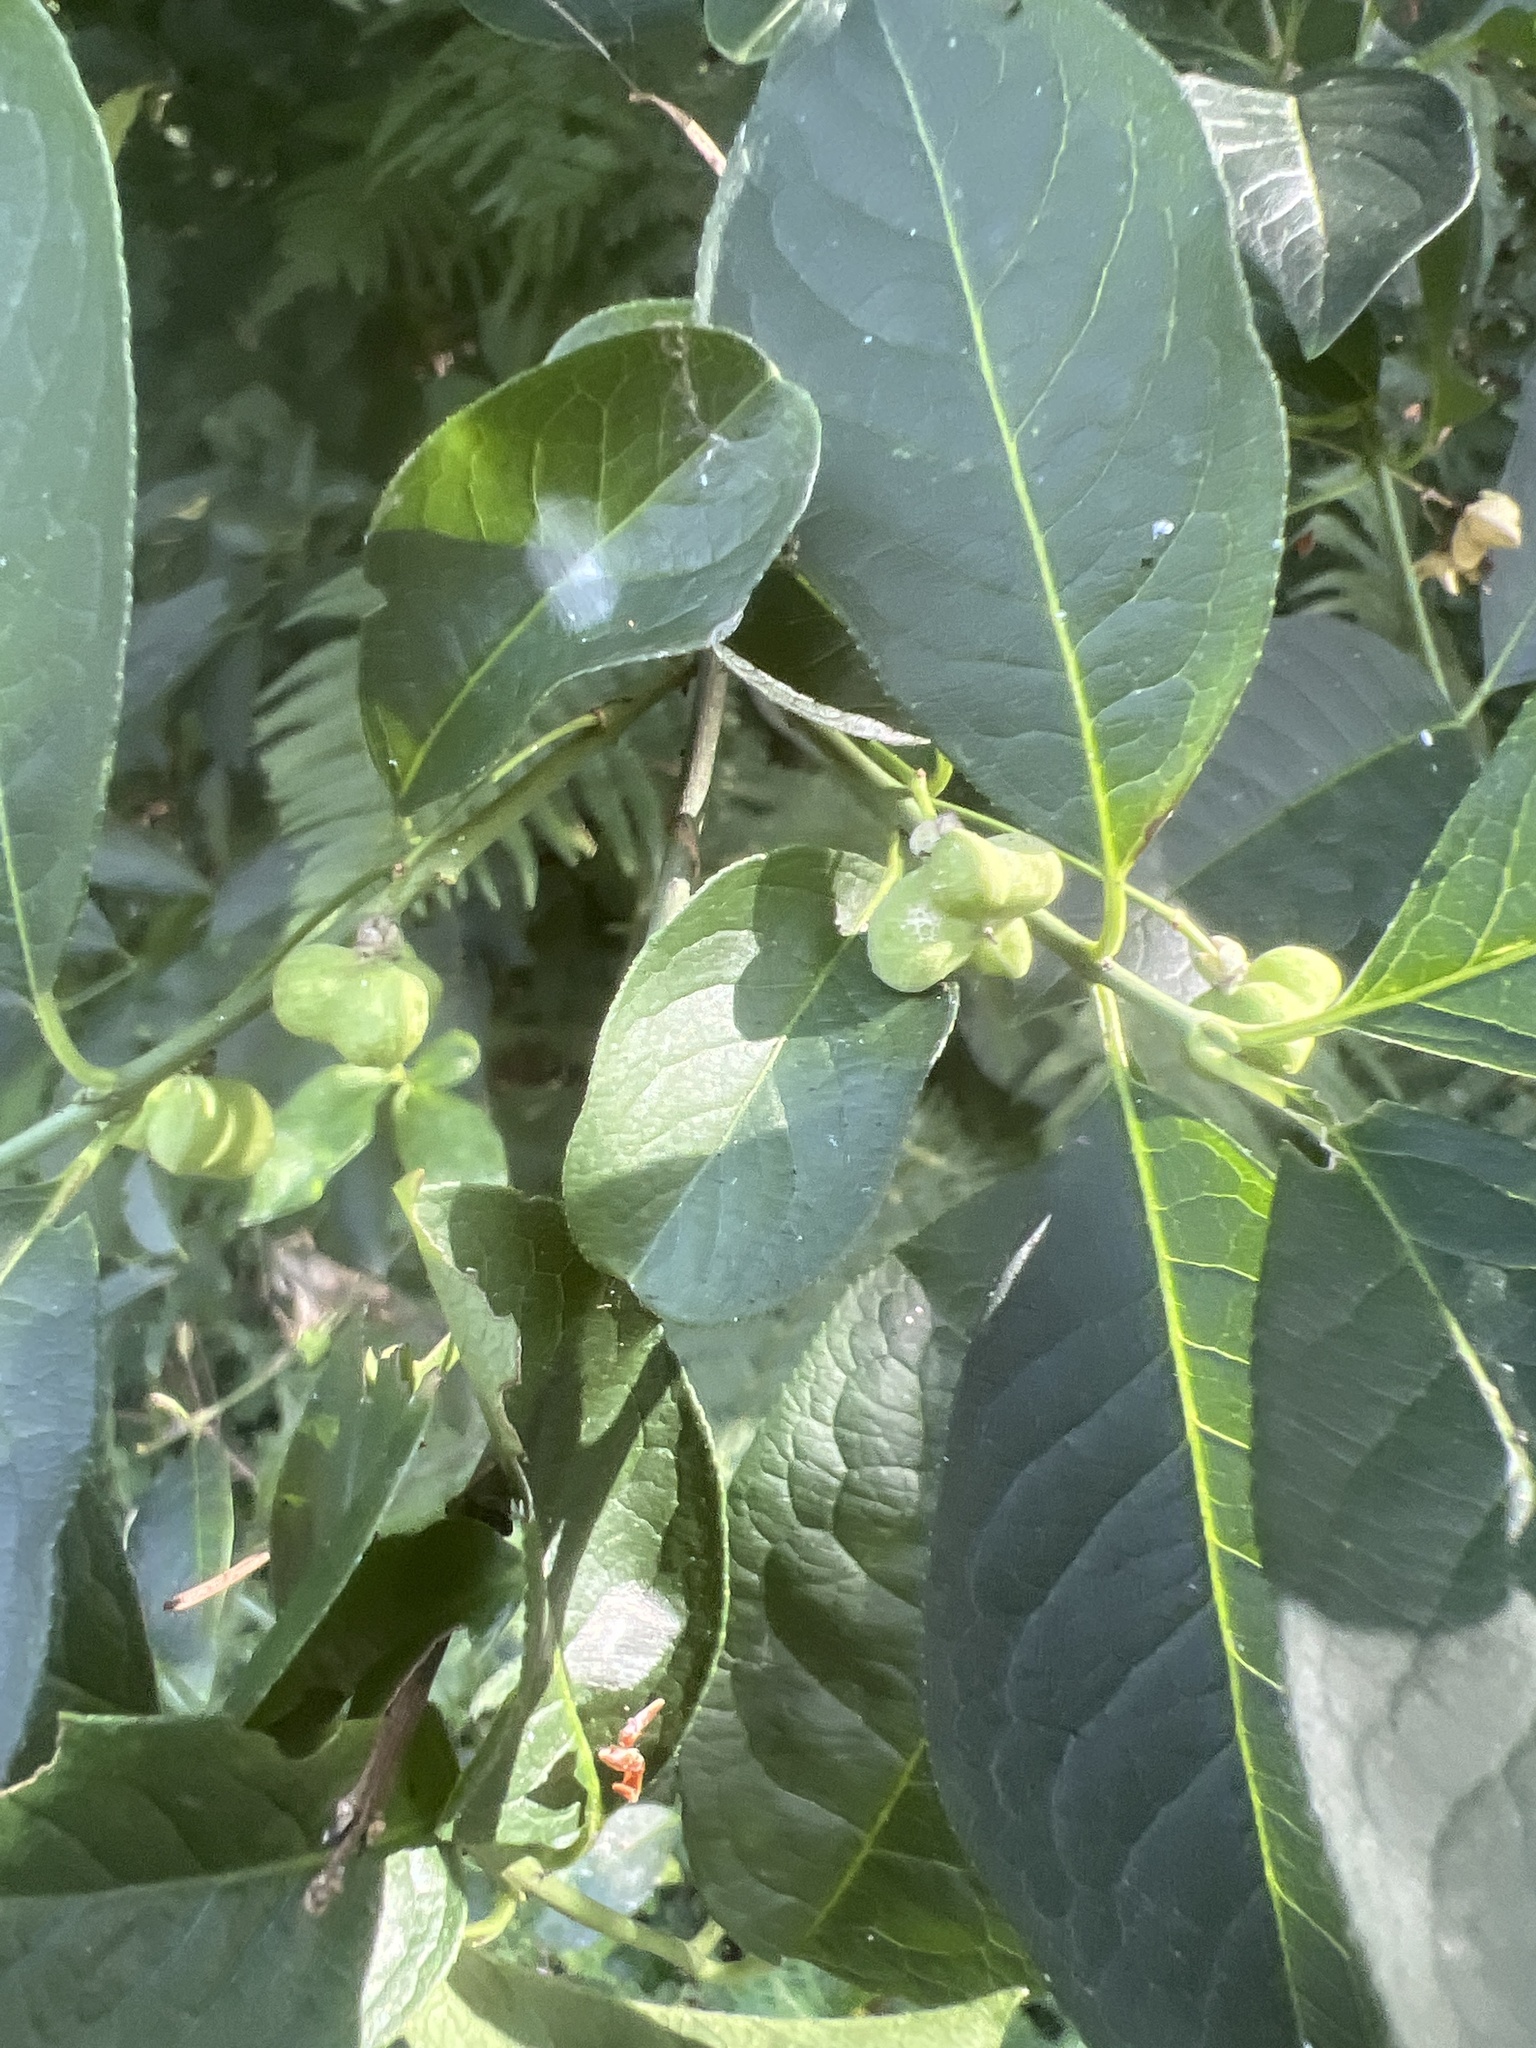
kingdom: Plantae
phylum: Tracheophyta
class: Magnoliopsida
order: Celastrales
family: Celastraceae
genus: Euonymus
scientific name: Euonymus europaeus
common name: Spindle
